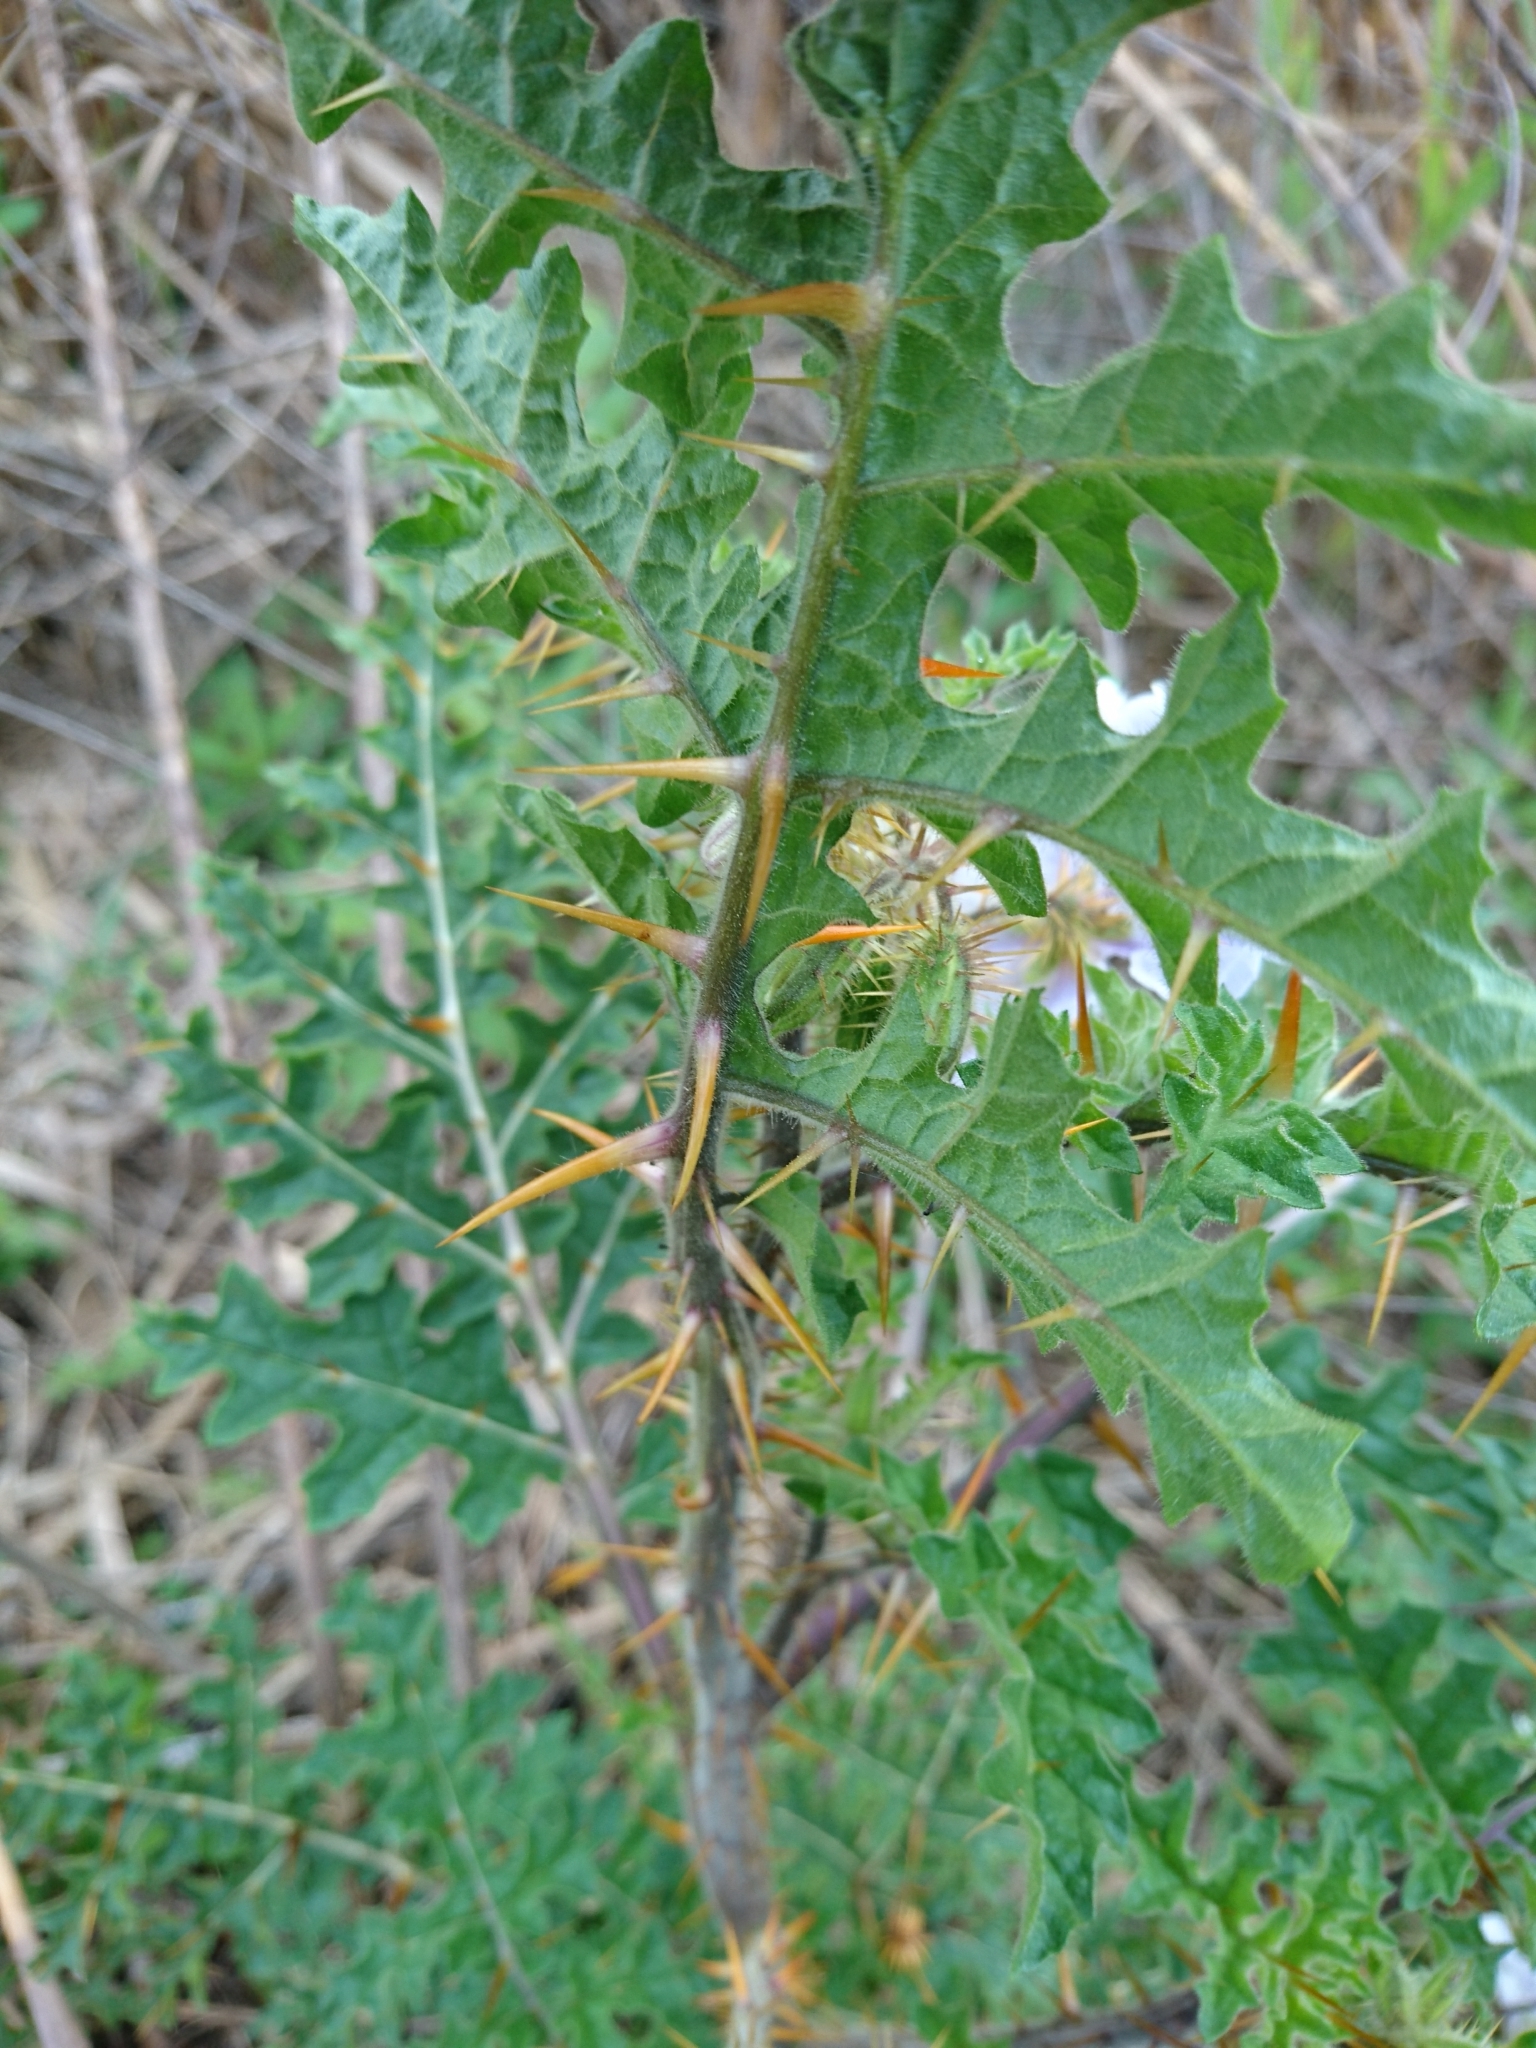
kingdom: Plantae
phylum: Tracheophyta
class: Magnoliopsida
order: Solanales
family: Solanaceae
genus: Solanum
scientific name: Solanum sisymbriifolium
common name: Red buffalo-bur
